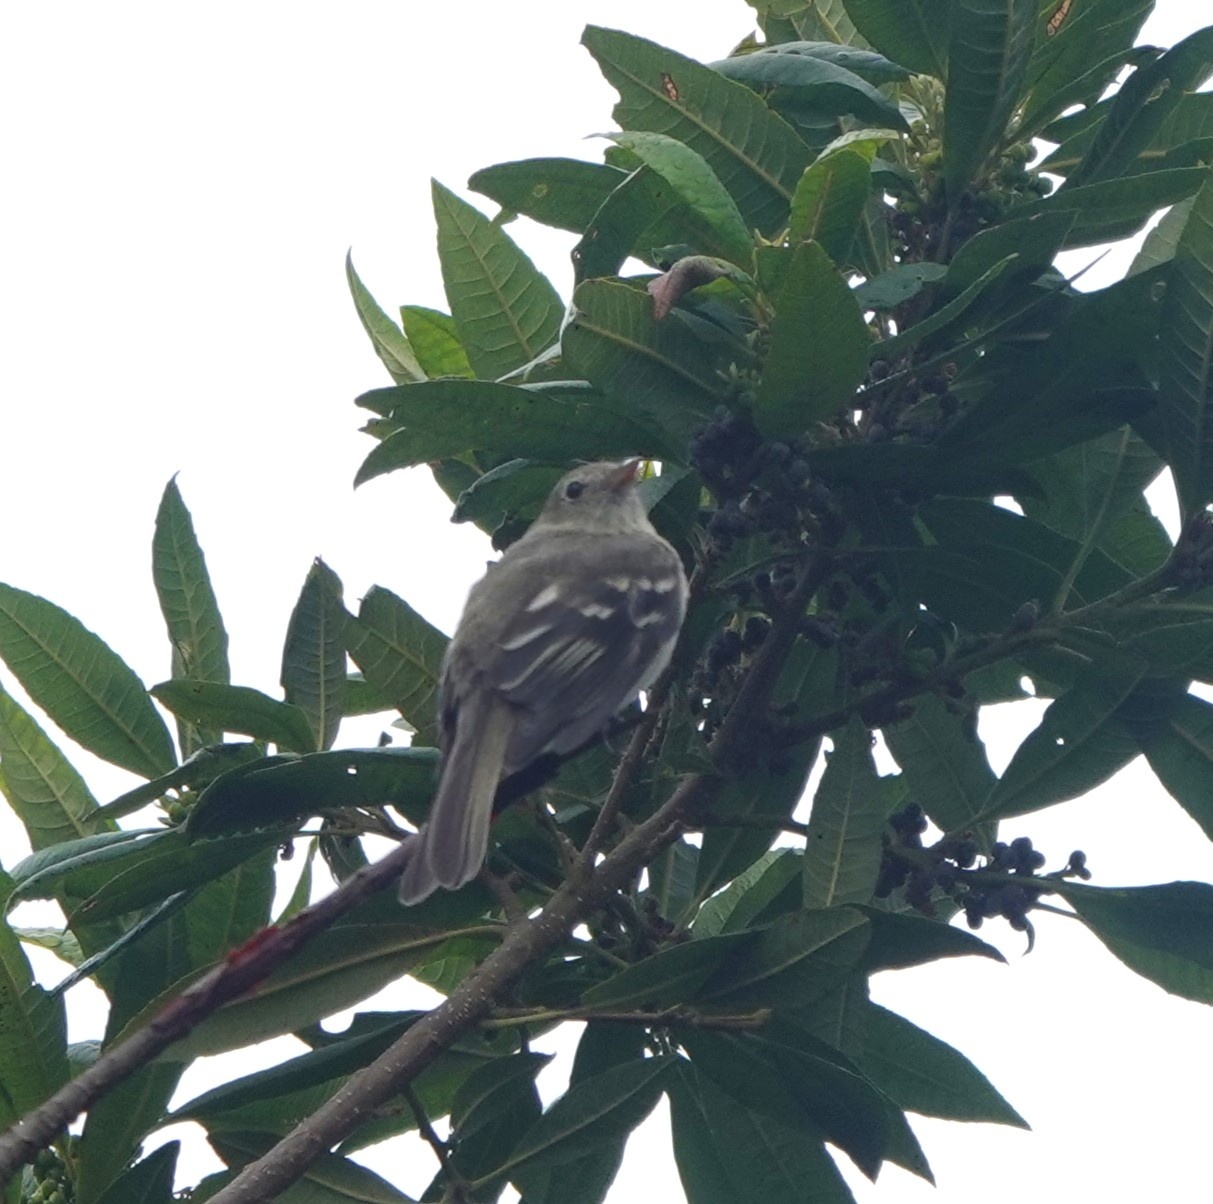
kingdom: Animalia
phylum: Chordata
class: Aves
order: Passeriformes
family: Tyrannidae
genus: Elaenia
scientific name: Elaenia frantzii
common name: Mountain elaenia
